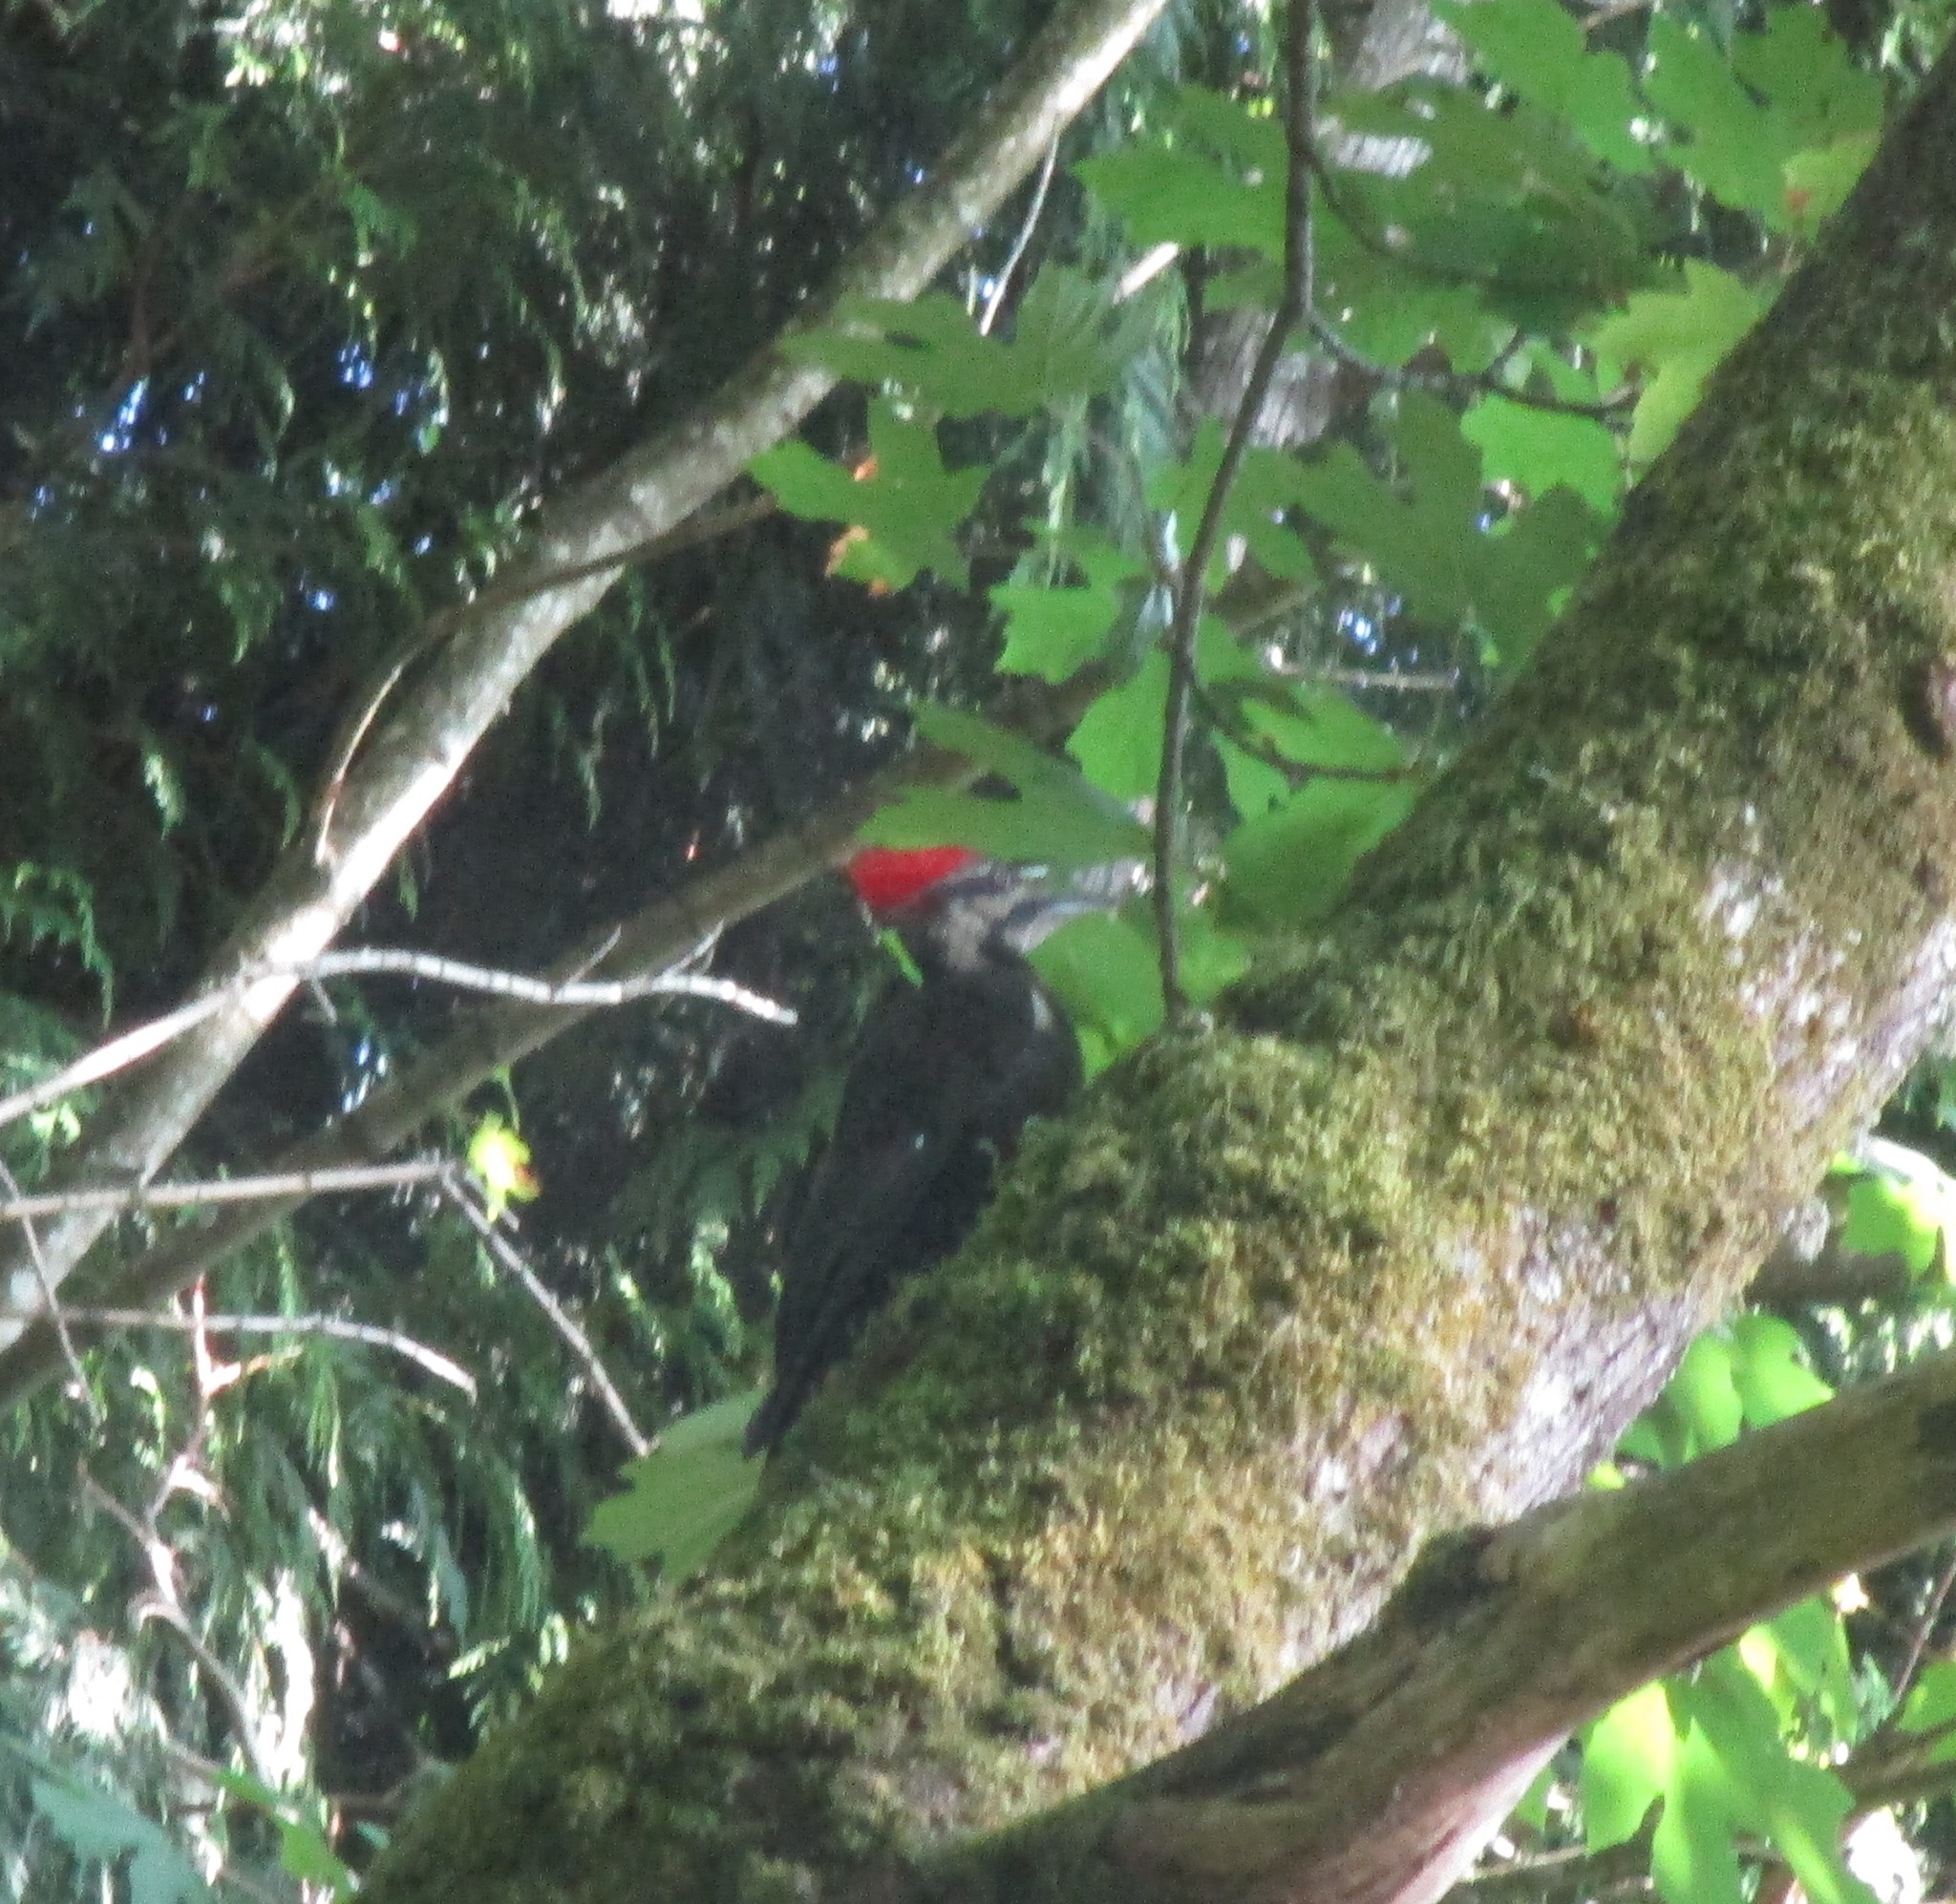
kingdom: Animalia
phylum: Chordata
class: Aves
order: Piciformes
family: Picidae
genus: Dryocopus
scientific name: Dryocopus pileatus
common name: Pileated woodpecker
